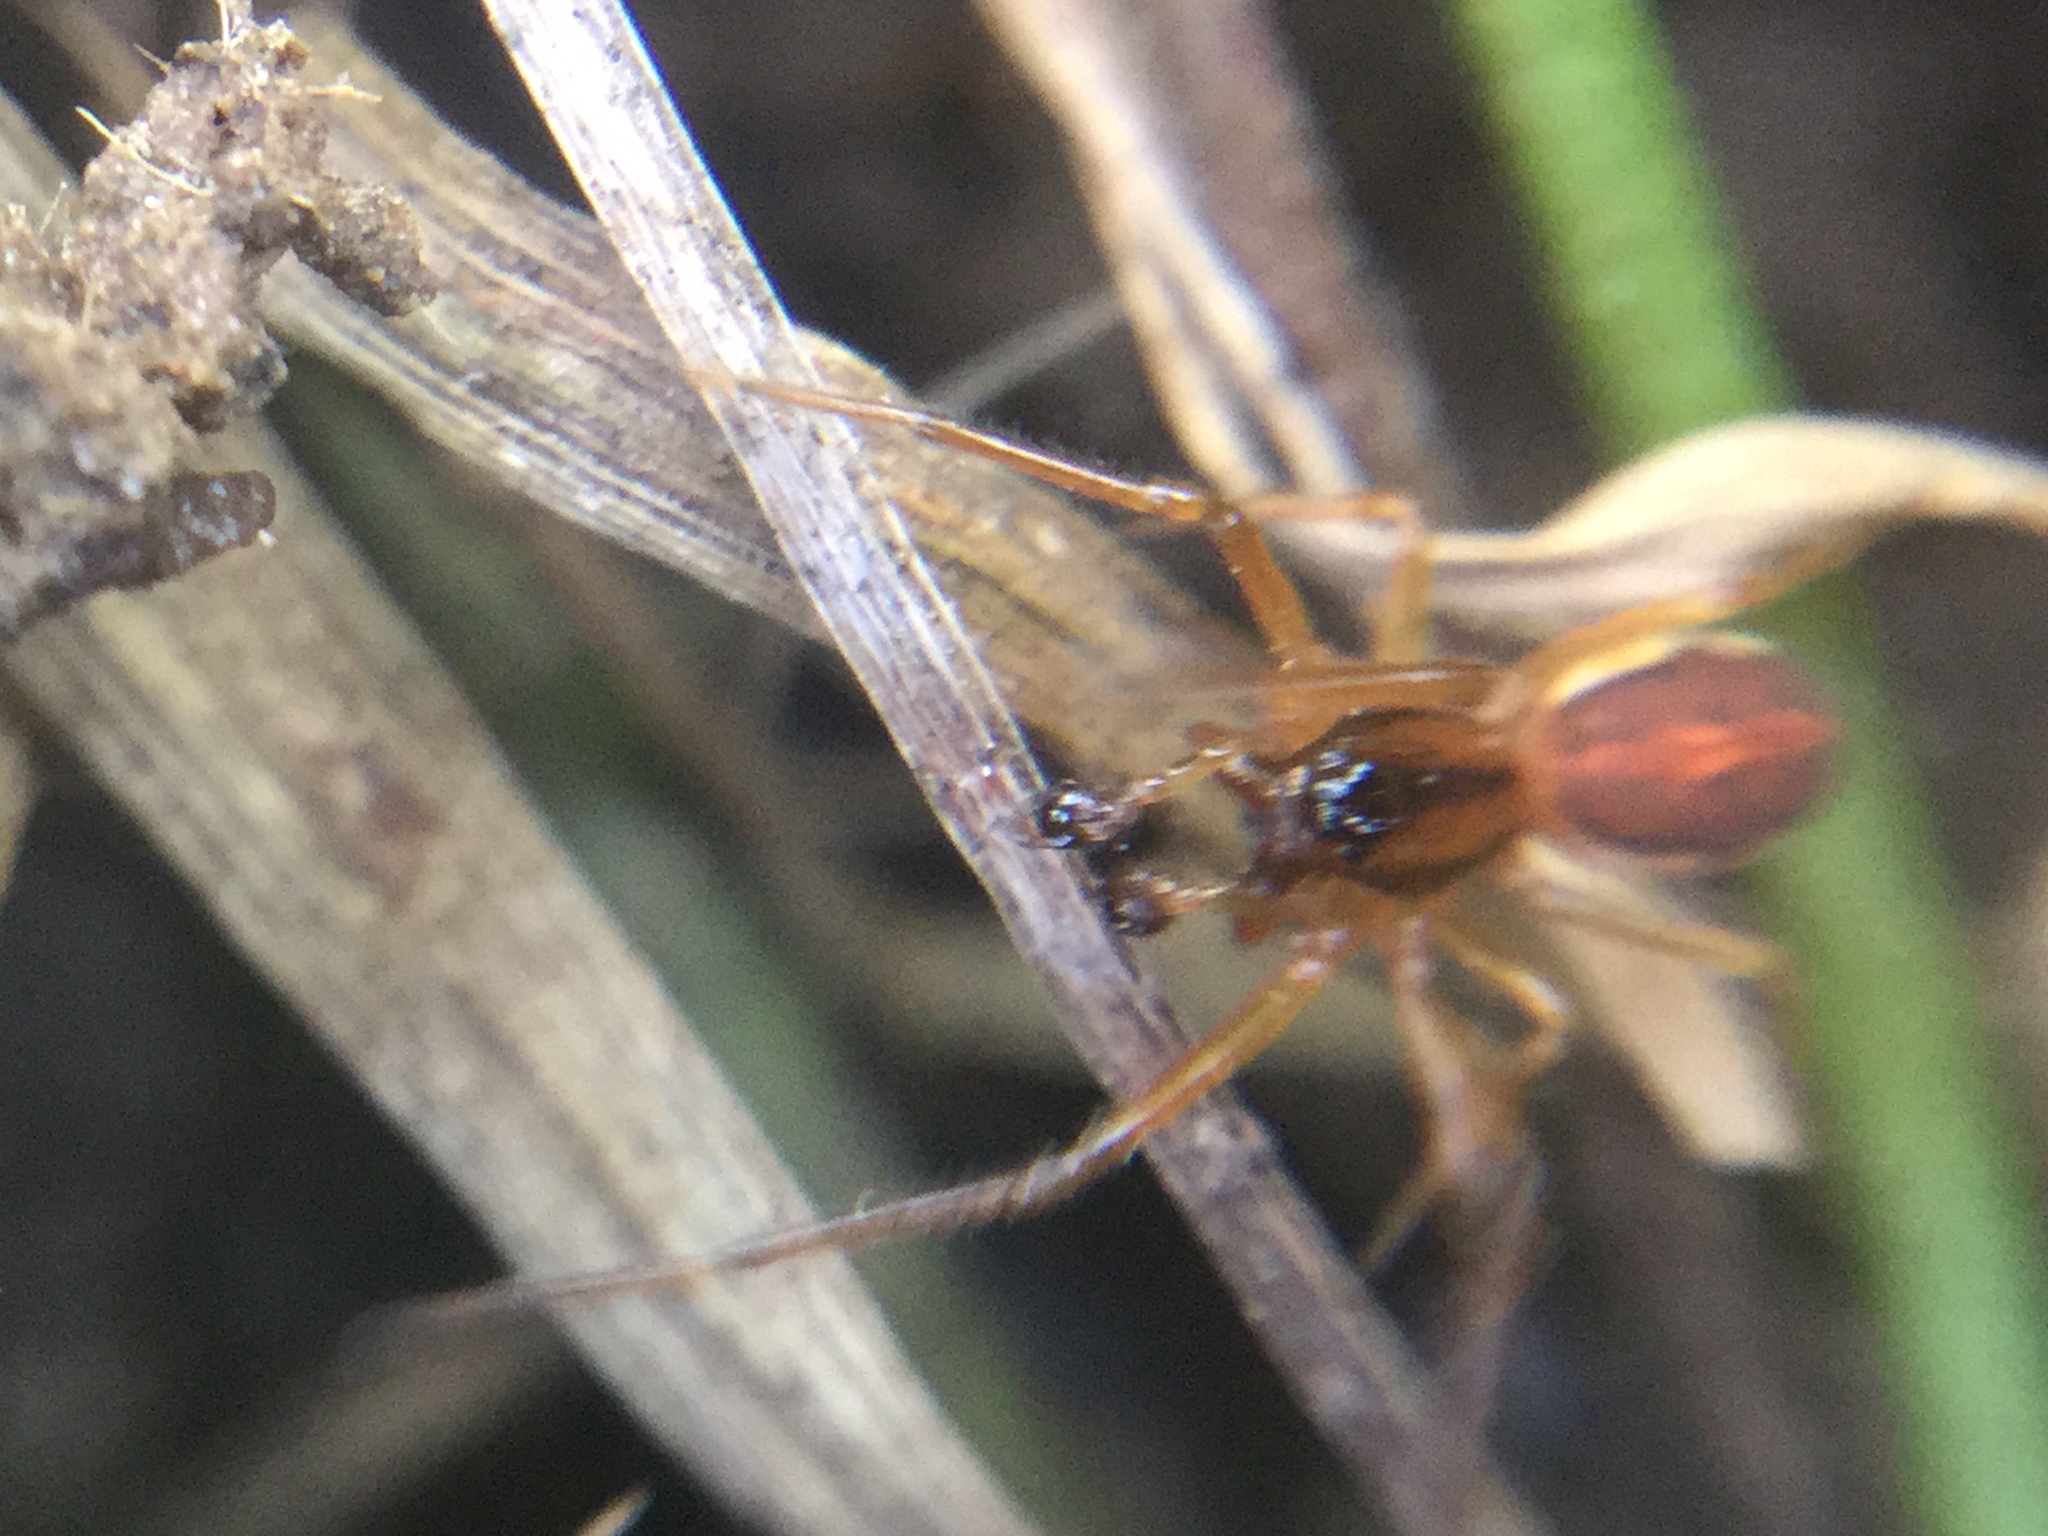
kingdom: Animalia
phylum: Arthropoda
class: Arachnida
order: Araneae
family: Tetragnathidae
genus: Pachygnatha
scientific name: Pachygnatha autumnalis
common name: Big-eyed thick-jawed spider
